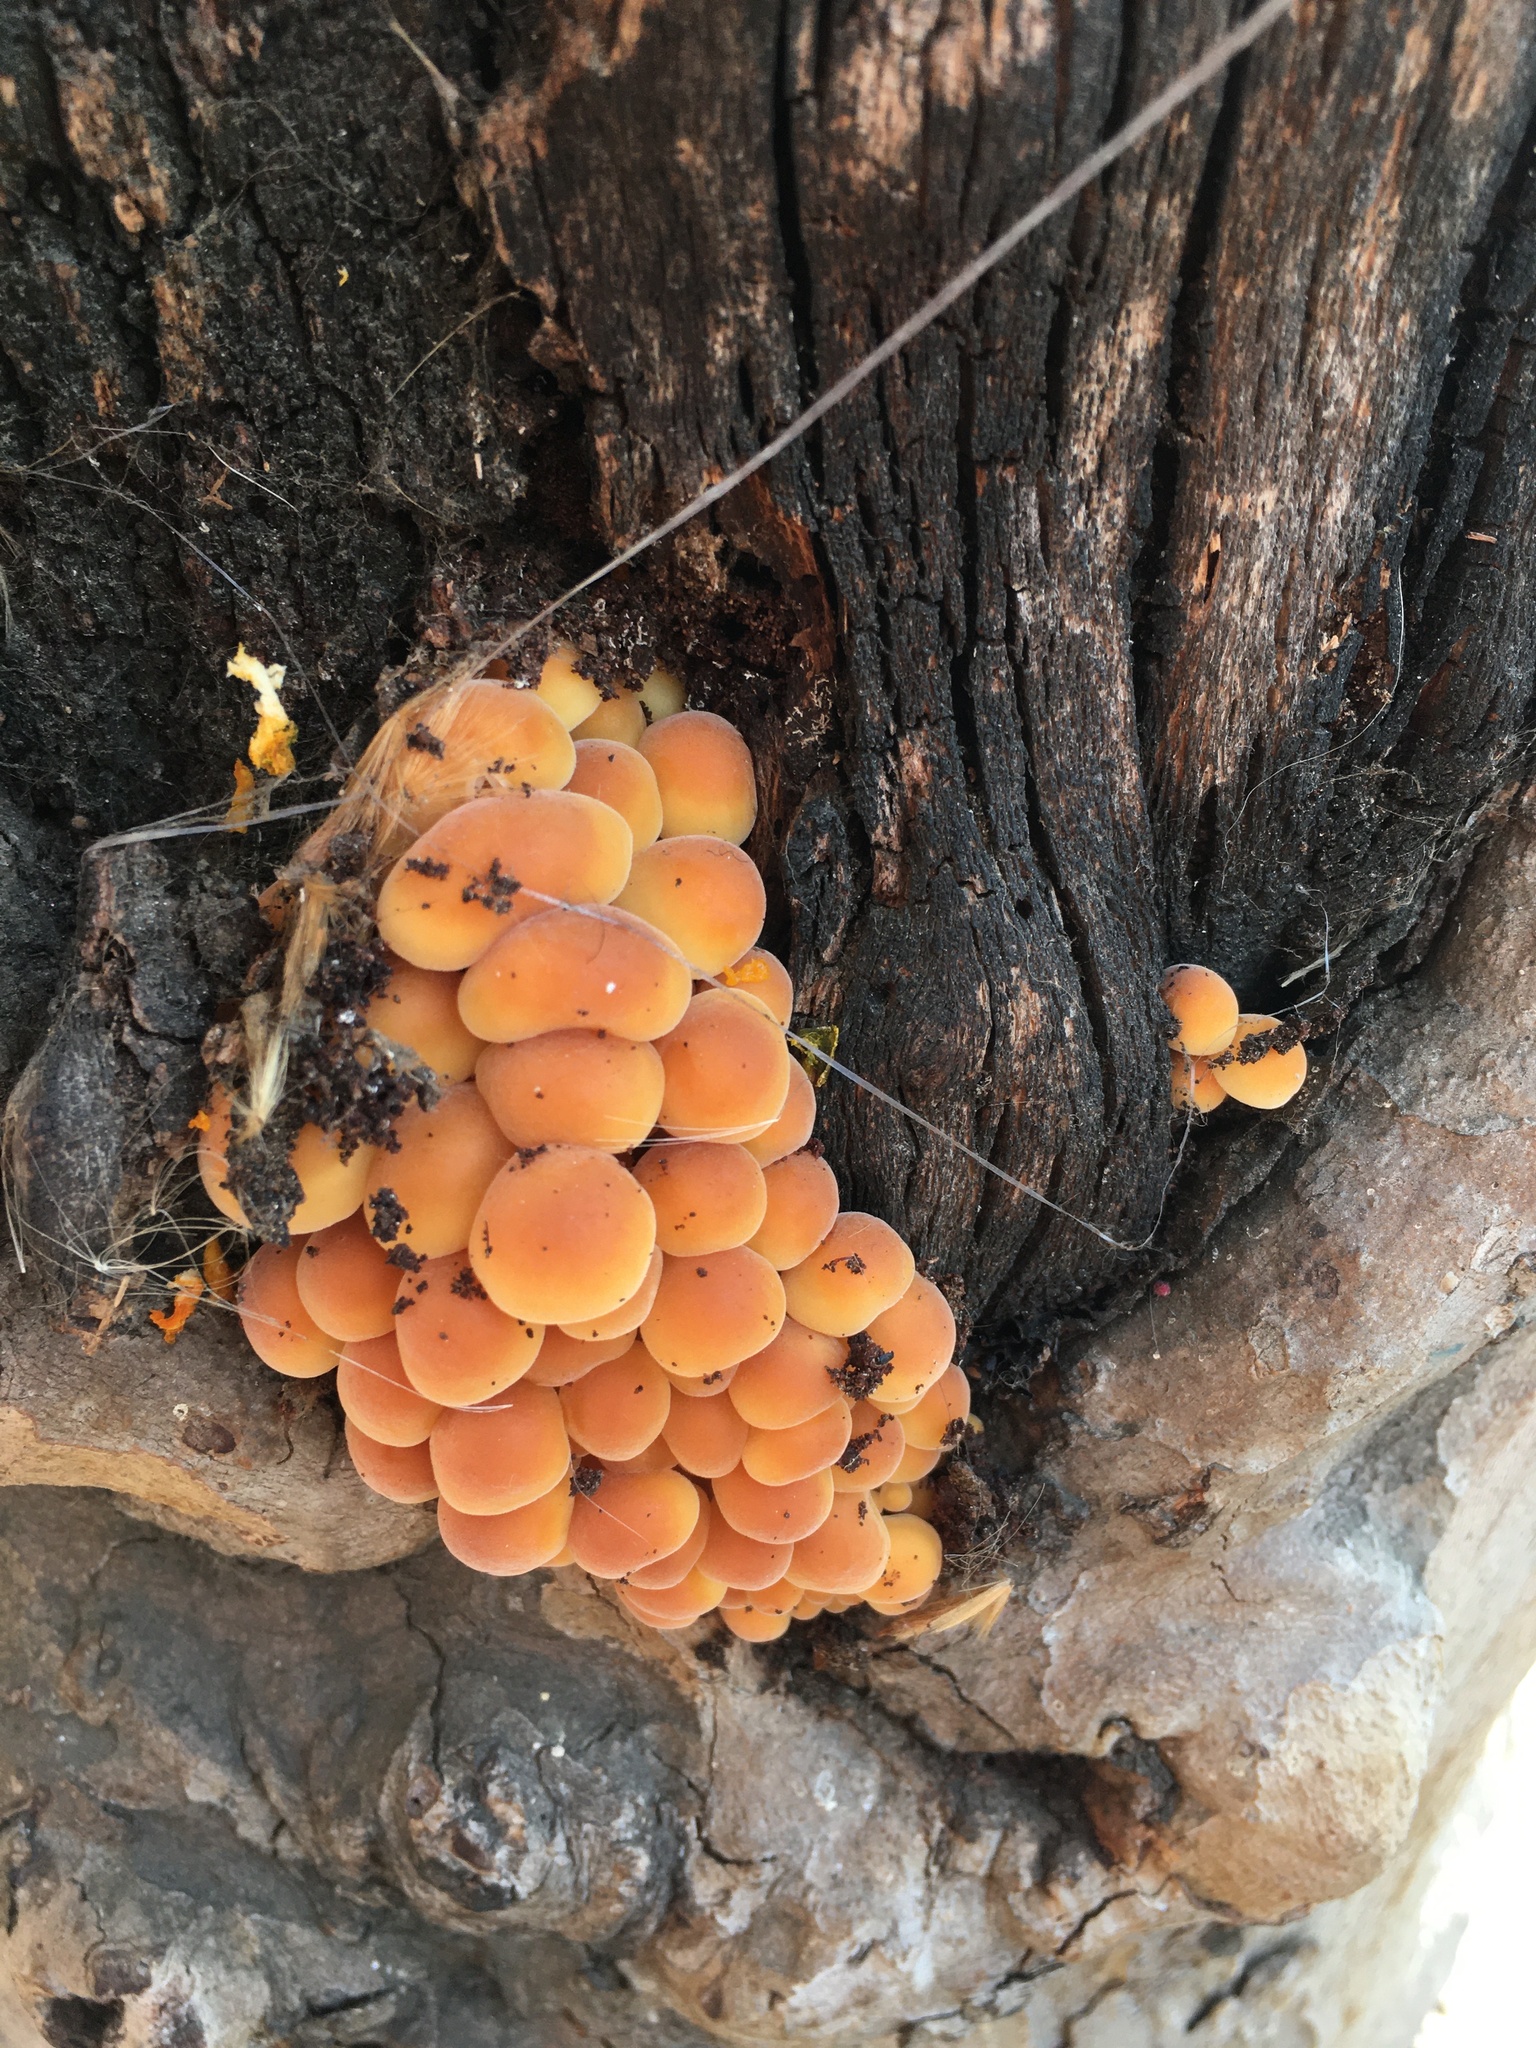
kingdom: Fungi
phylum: Basidiomycota
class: Agaricomycetes
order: Agaricales
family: Physalacriaceae
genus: Flammulina
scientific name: Flammulina velutipes
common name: Velvet shank
